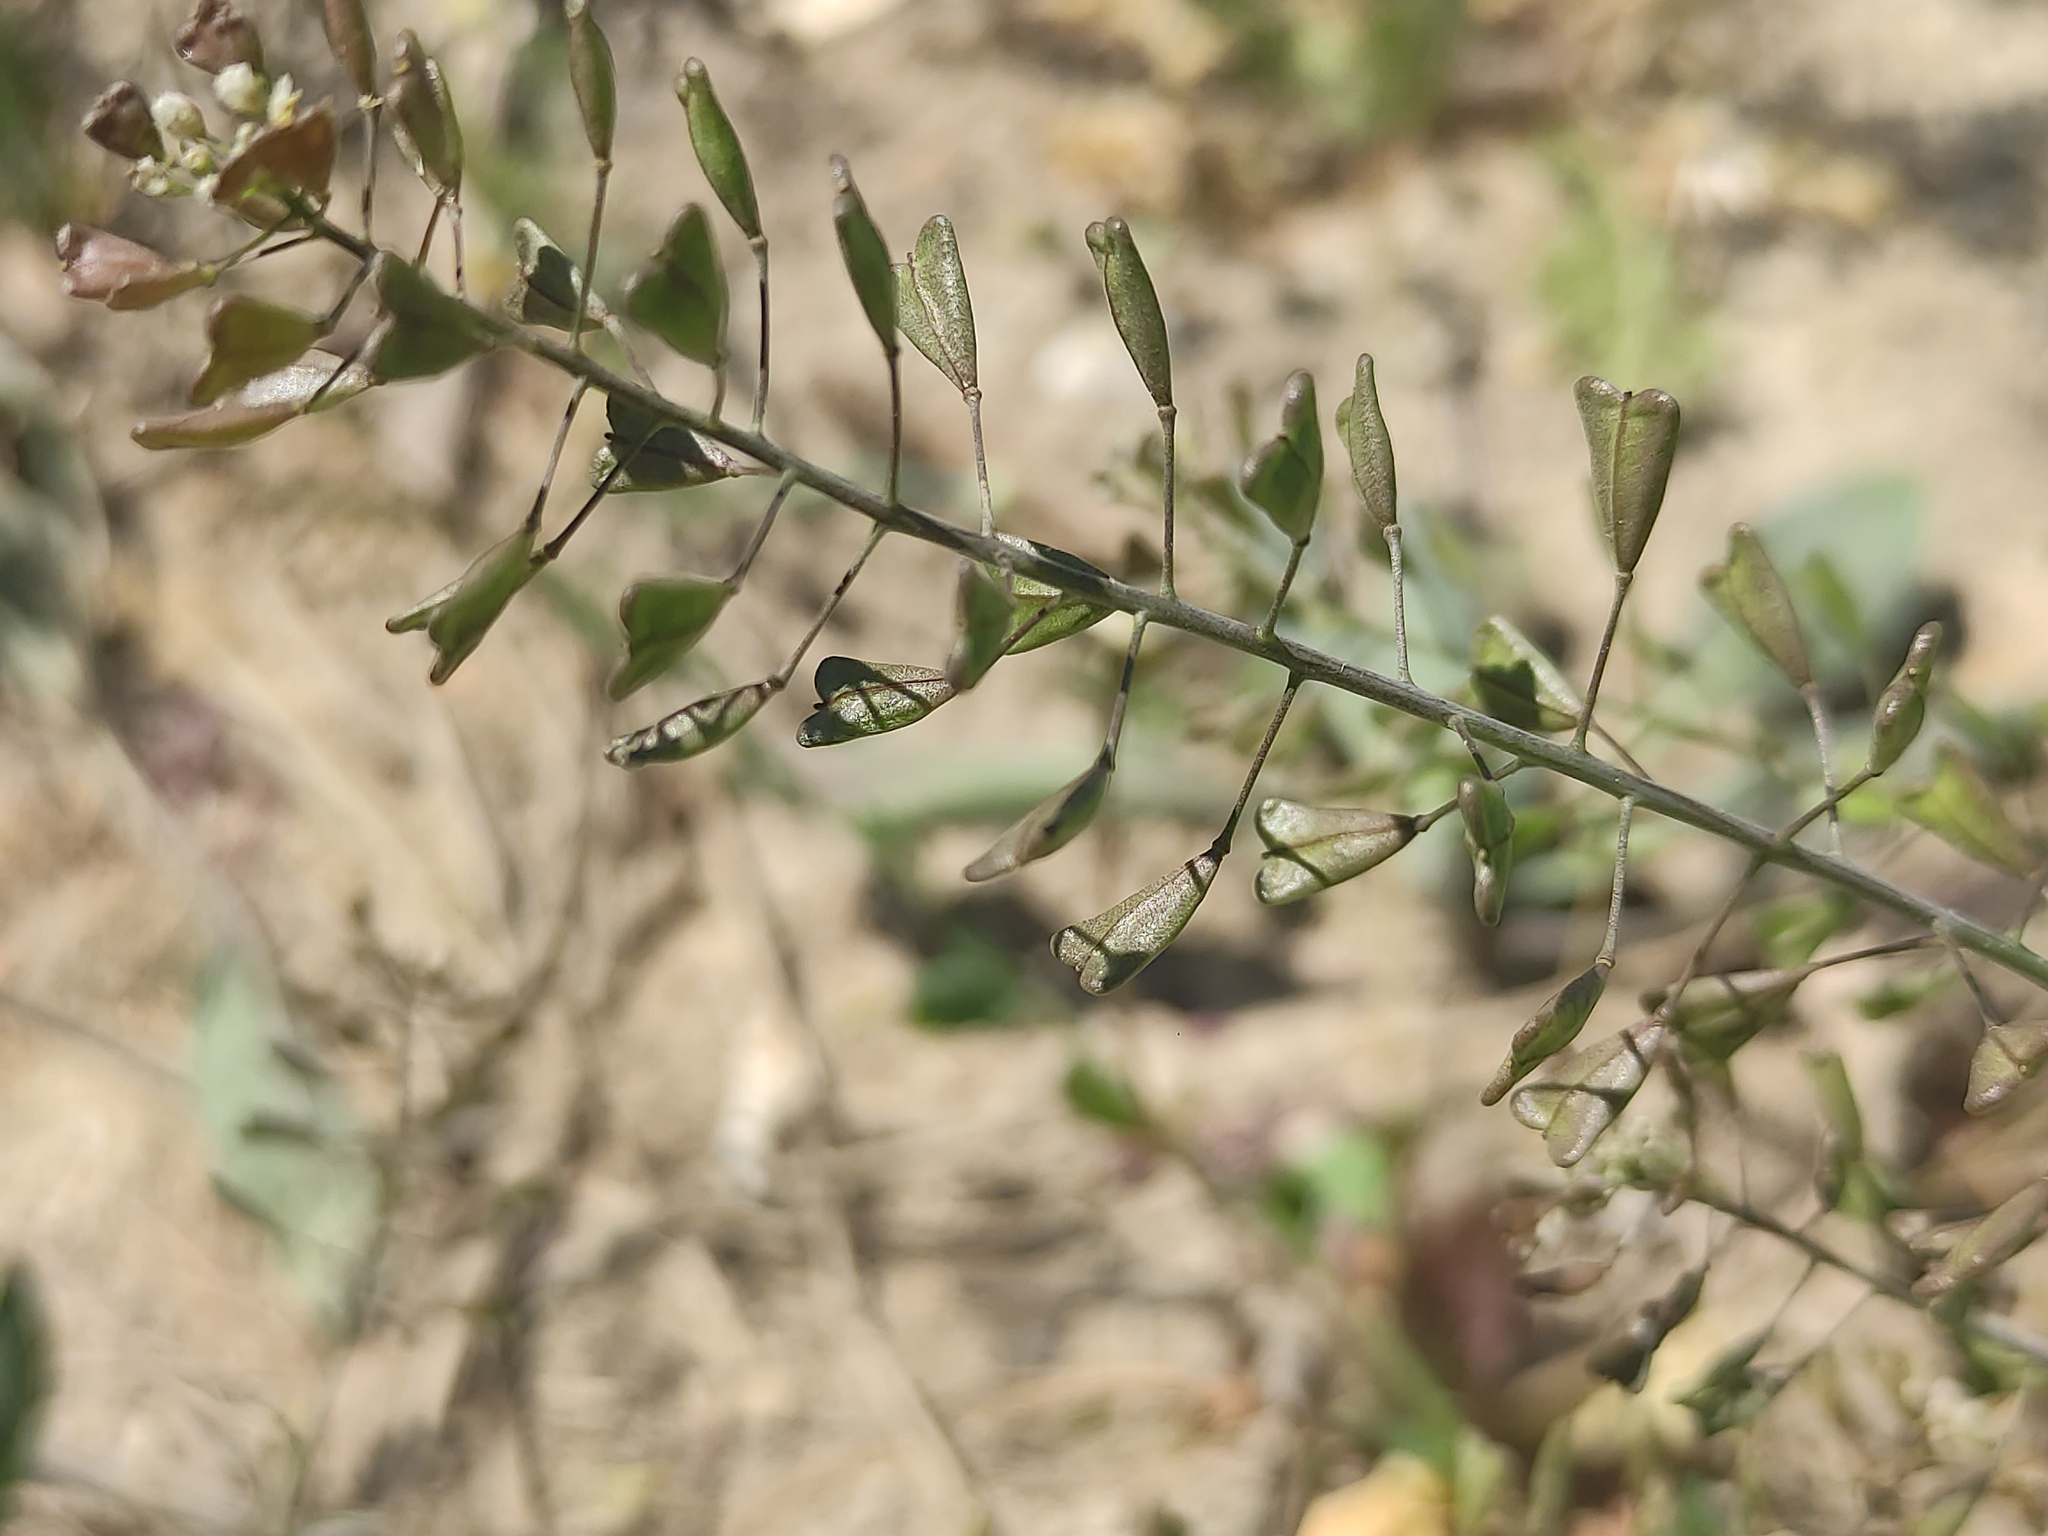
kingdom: Plantae
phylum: Tracheophyta
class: Magnoliopsida
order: Brassicales
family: Brassicaceae
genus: Capsella
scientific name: Capsella bursa-pastoris
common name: Shepherd's purse
